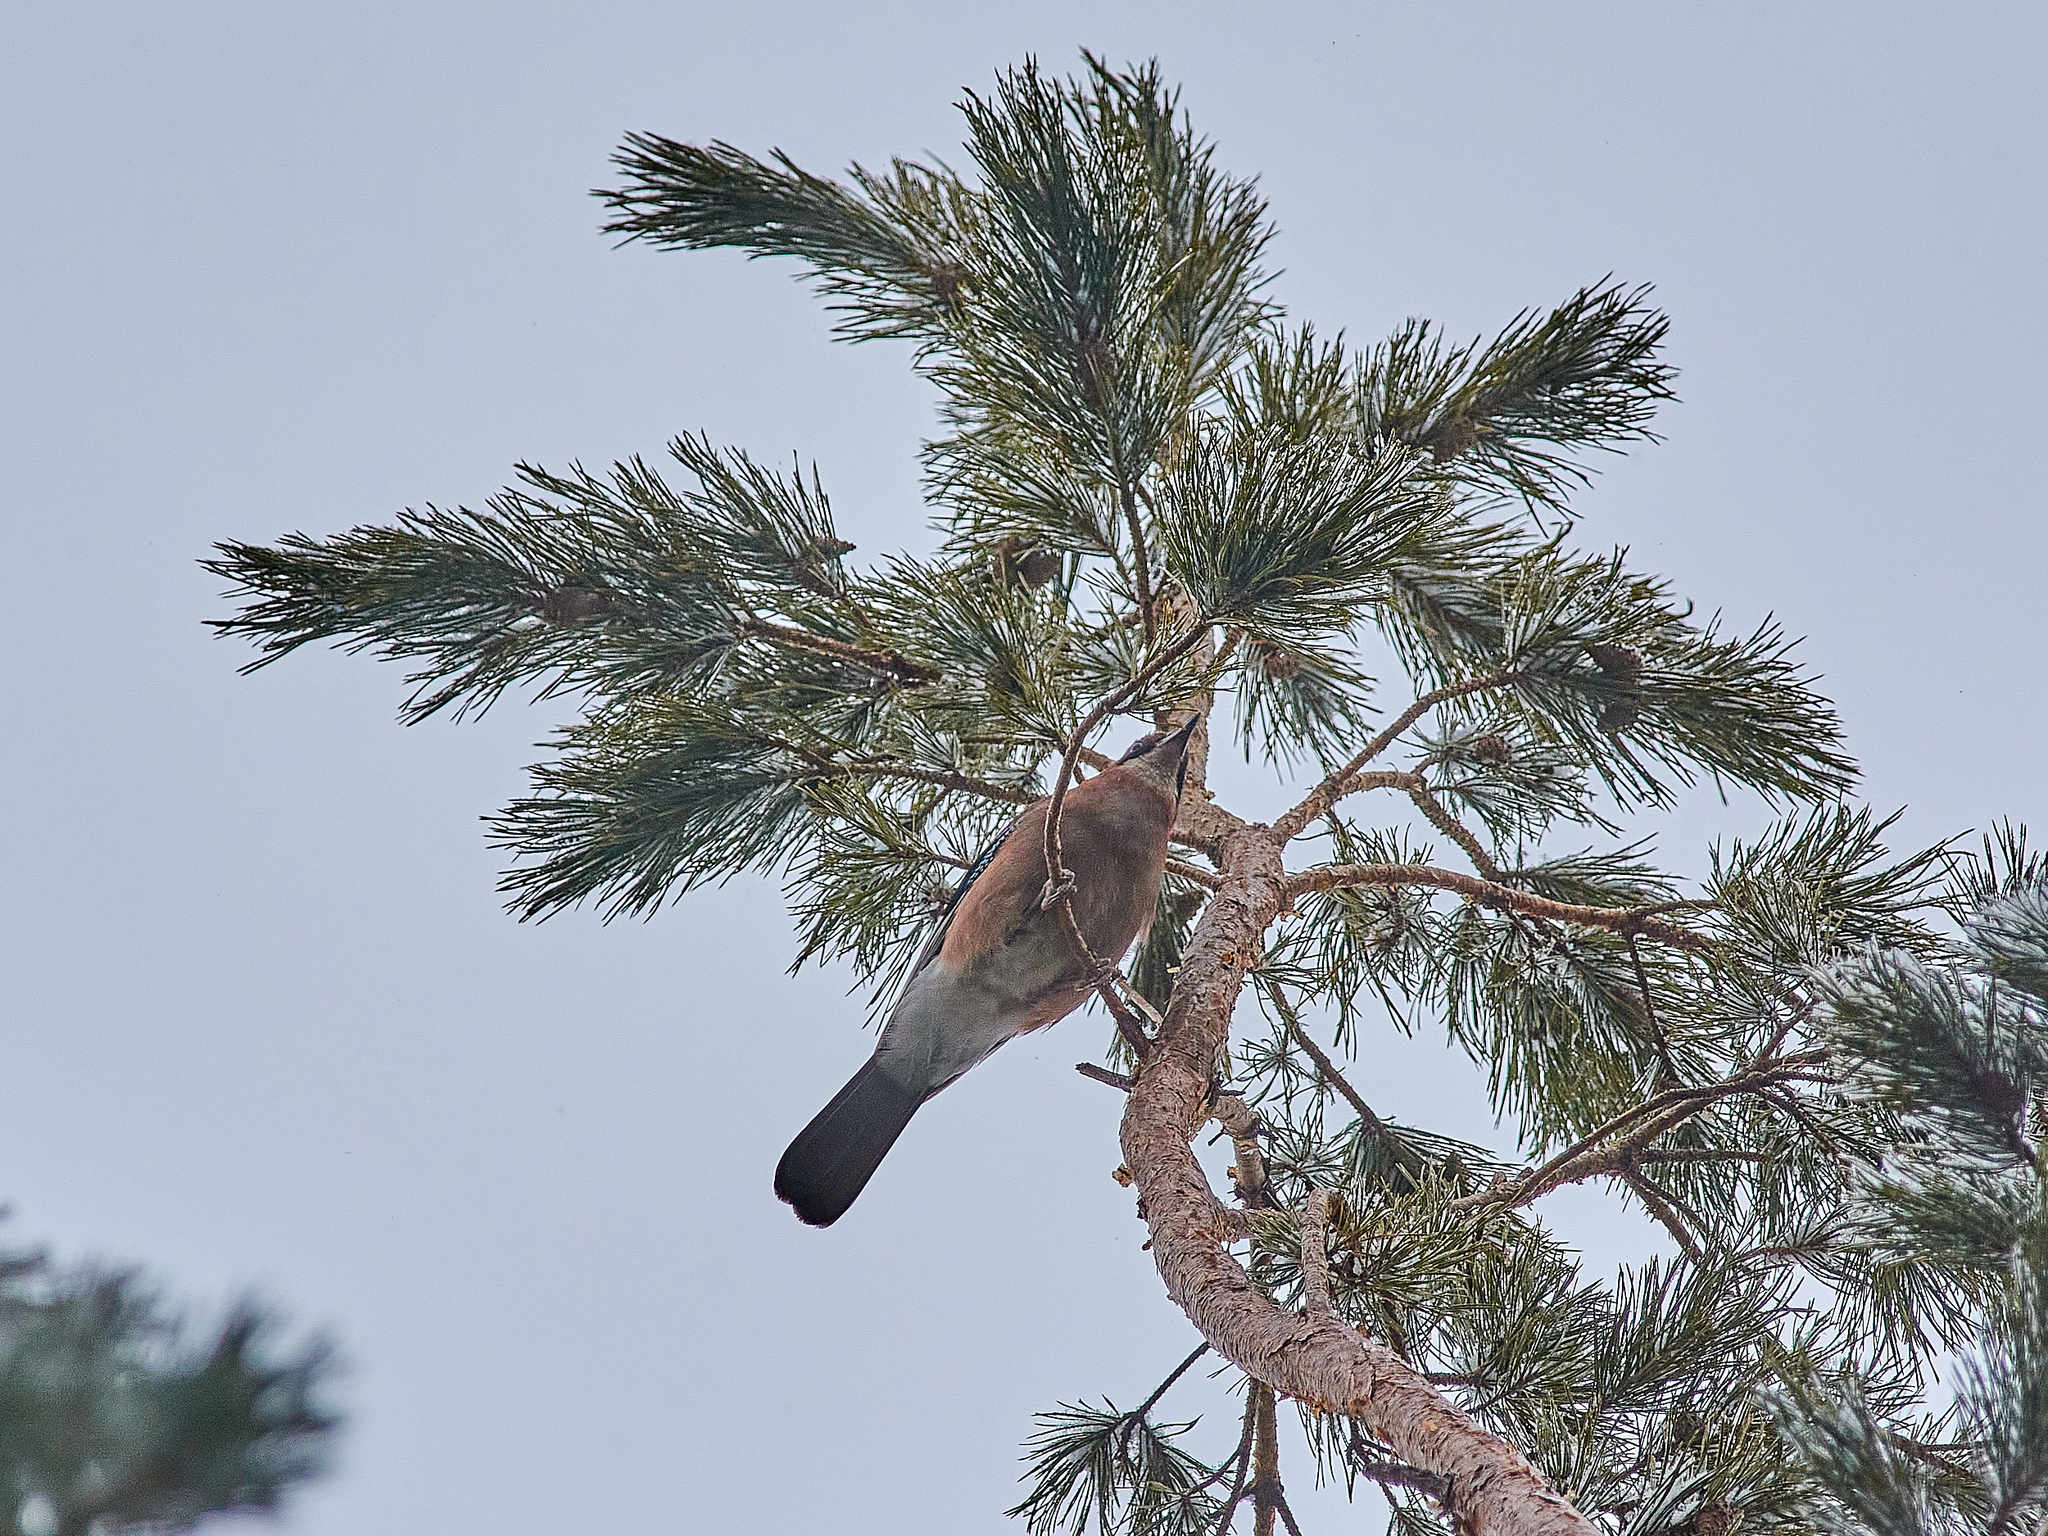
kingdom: Animalia
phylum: Chordata
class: Aves
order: Passeriformes
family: Corvidae
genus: Garrulus
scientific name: Garrulus glandarius
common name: Eurasian jay
